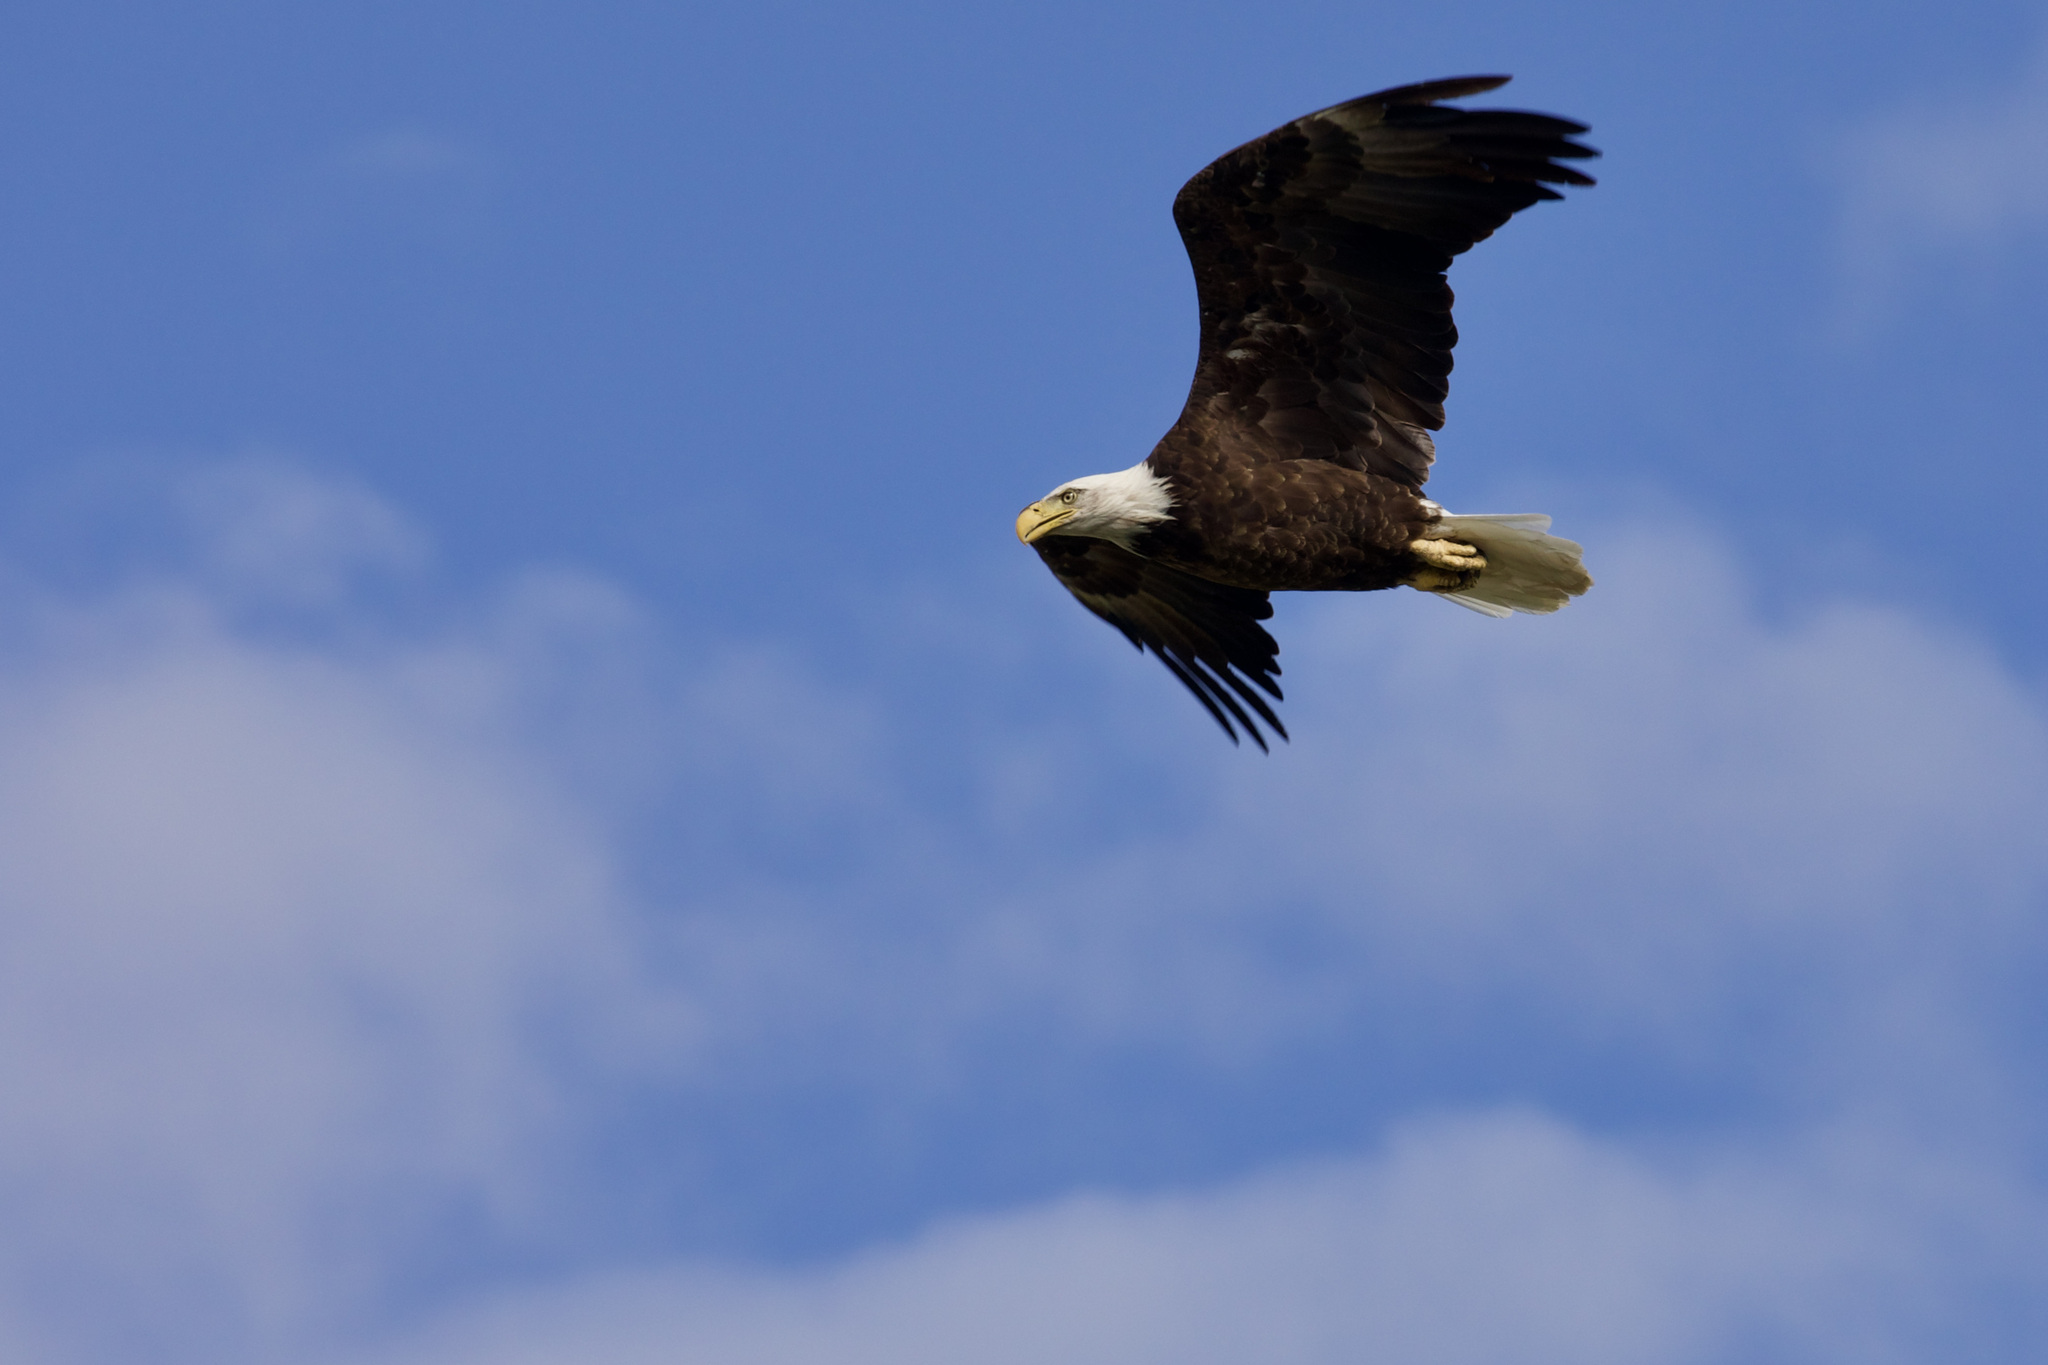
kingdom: Animalia
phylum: Chordata
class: Aves
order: Accipitriformes
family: Accipitridae
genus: Haliaeetus
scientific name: Haliaeetus leucocephalus
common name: Bald eagle
